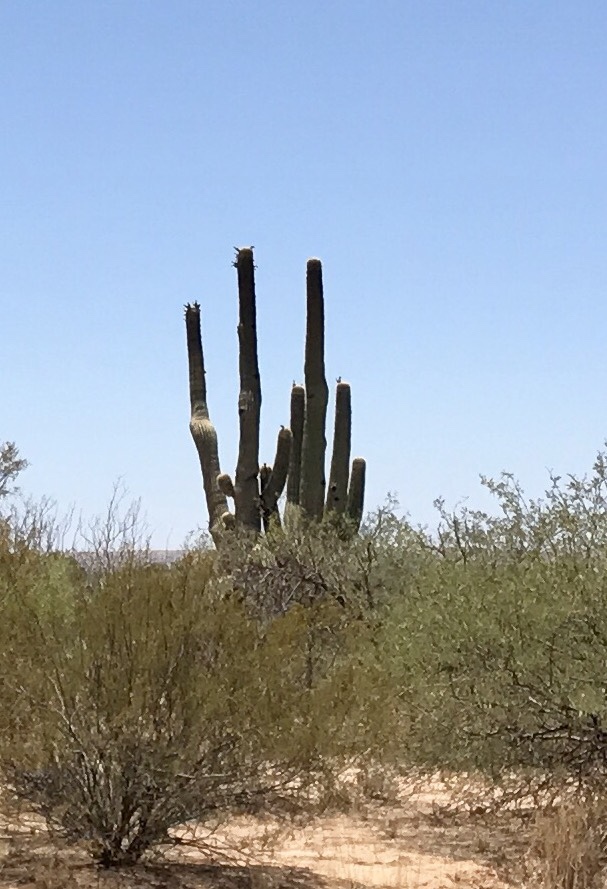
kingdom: Plantae
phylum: Tracheophyta
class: Magnoliopsida
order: Caryophyllales
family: Cactaceae
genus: Carnegiea
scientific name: Carnegiea gigantea
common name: Saguaro
